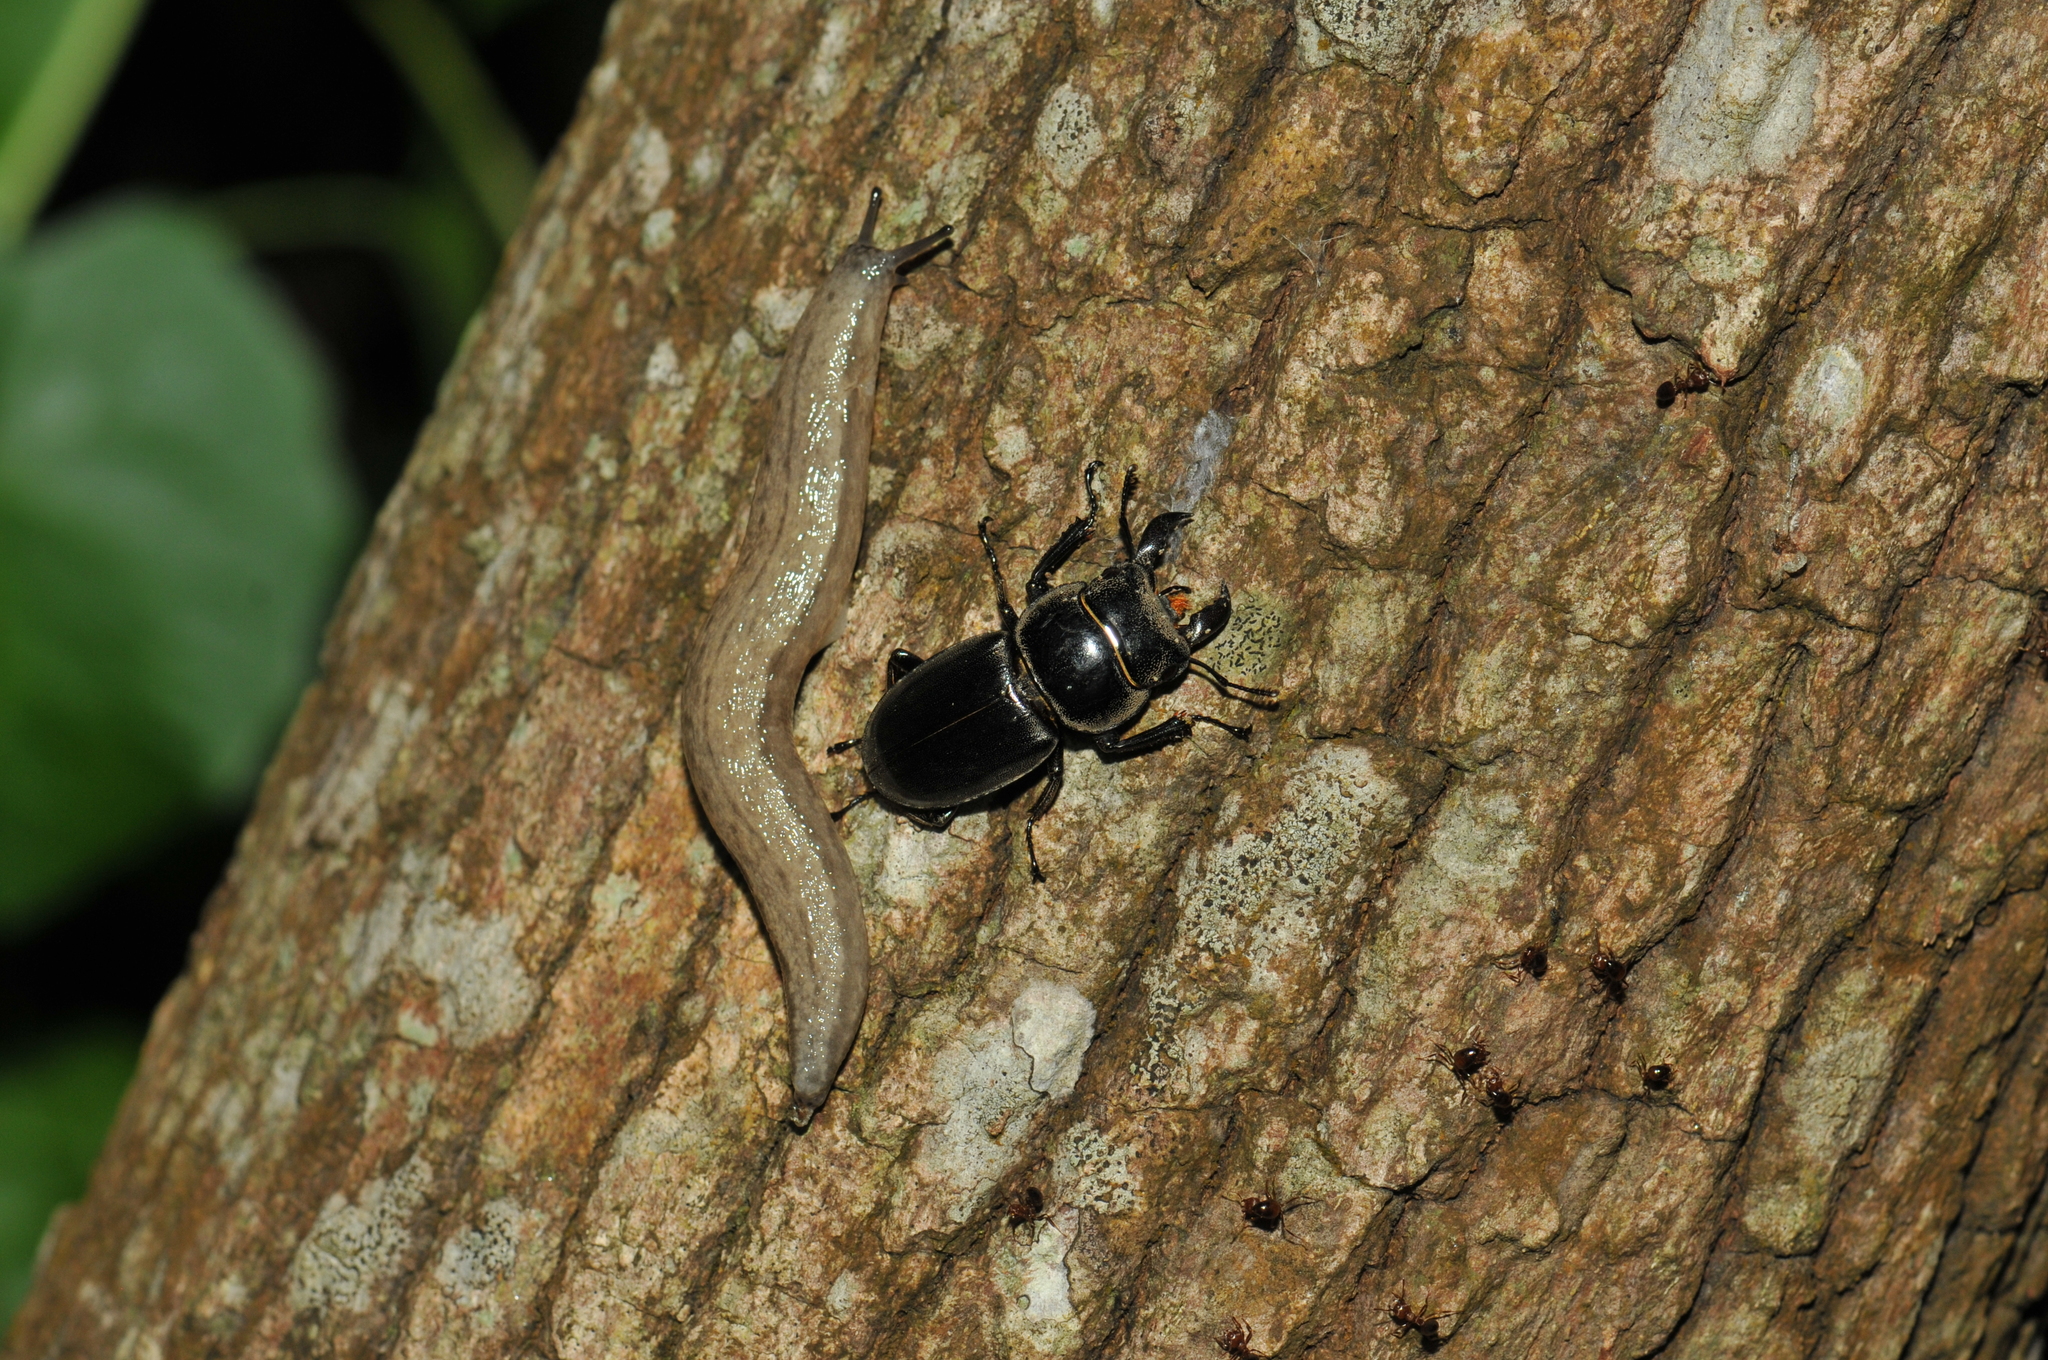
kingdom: Animalia
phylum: Arthropoda
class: Insecta
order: Coleoptera
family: Lucanidae
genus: Serrognathus
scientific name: Serrognathus titanus
